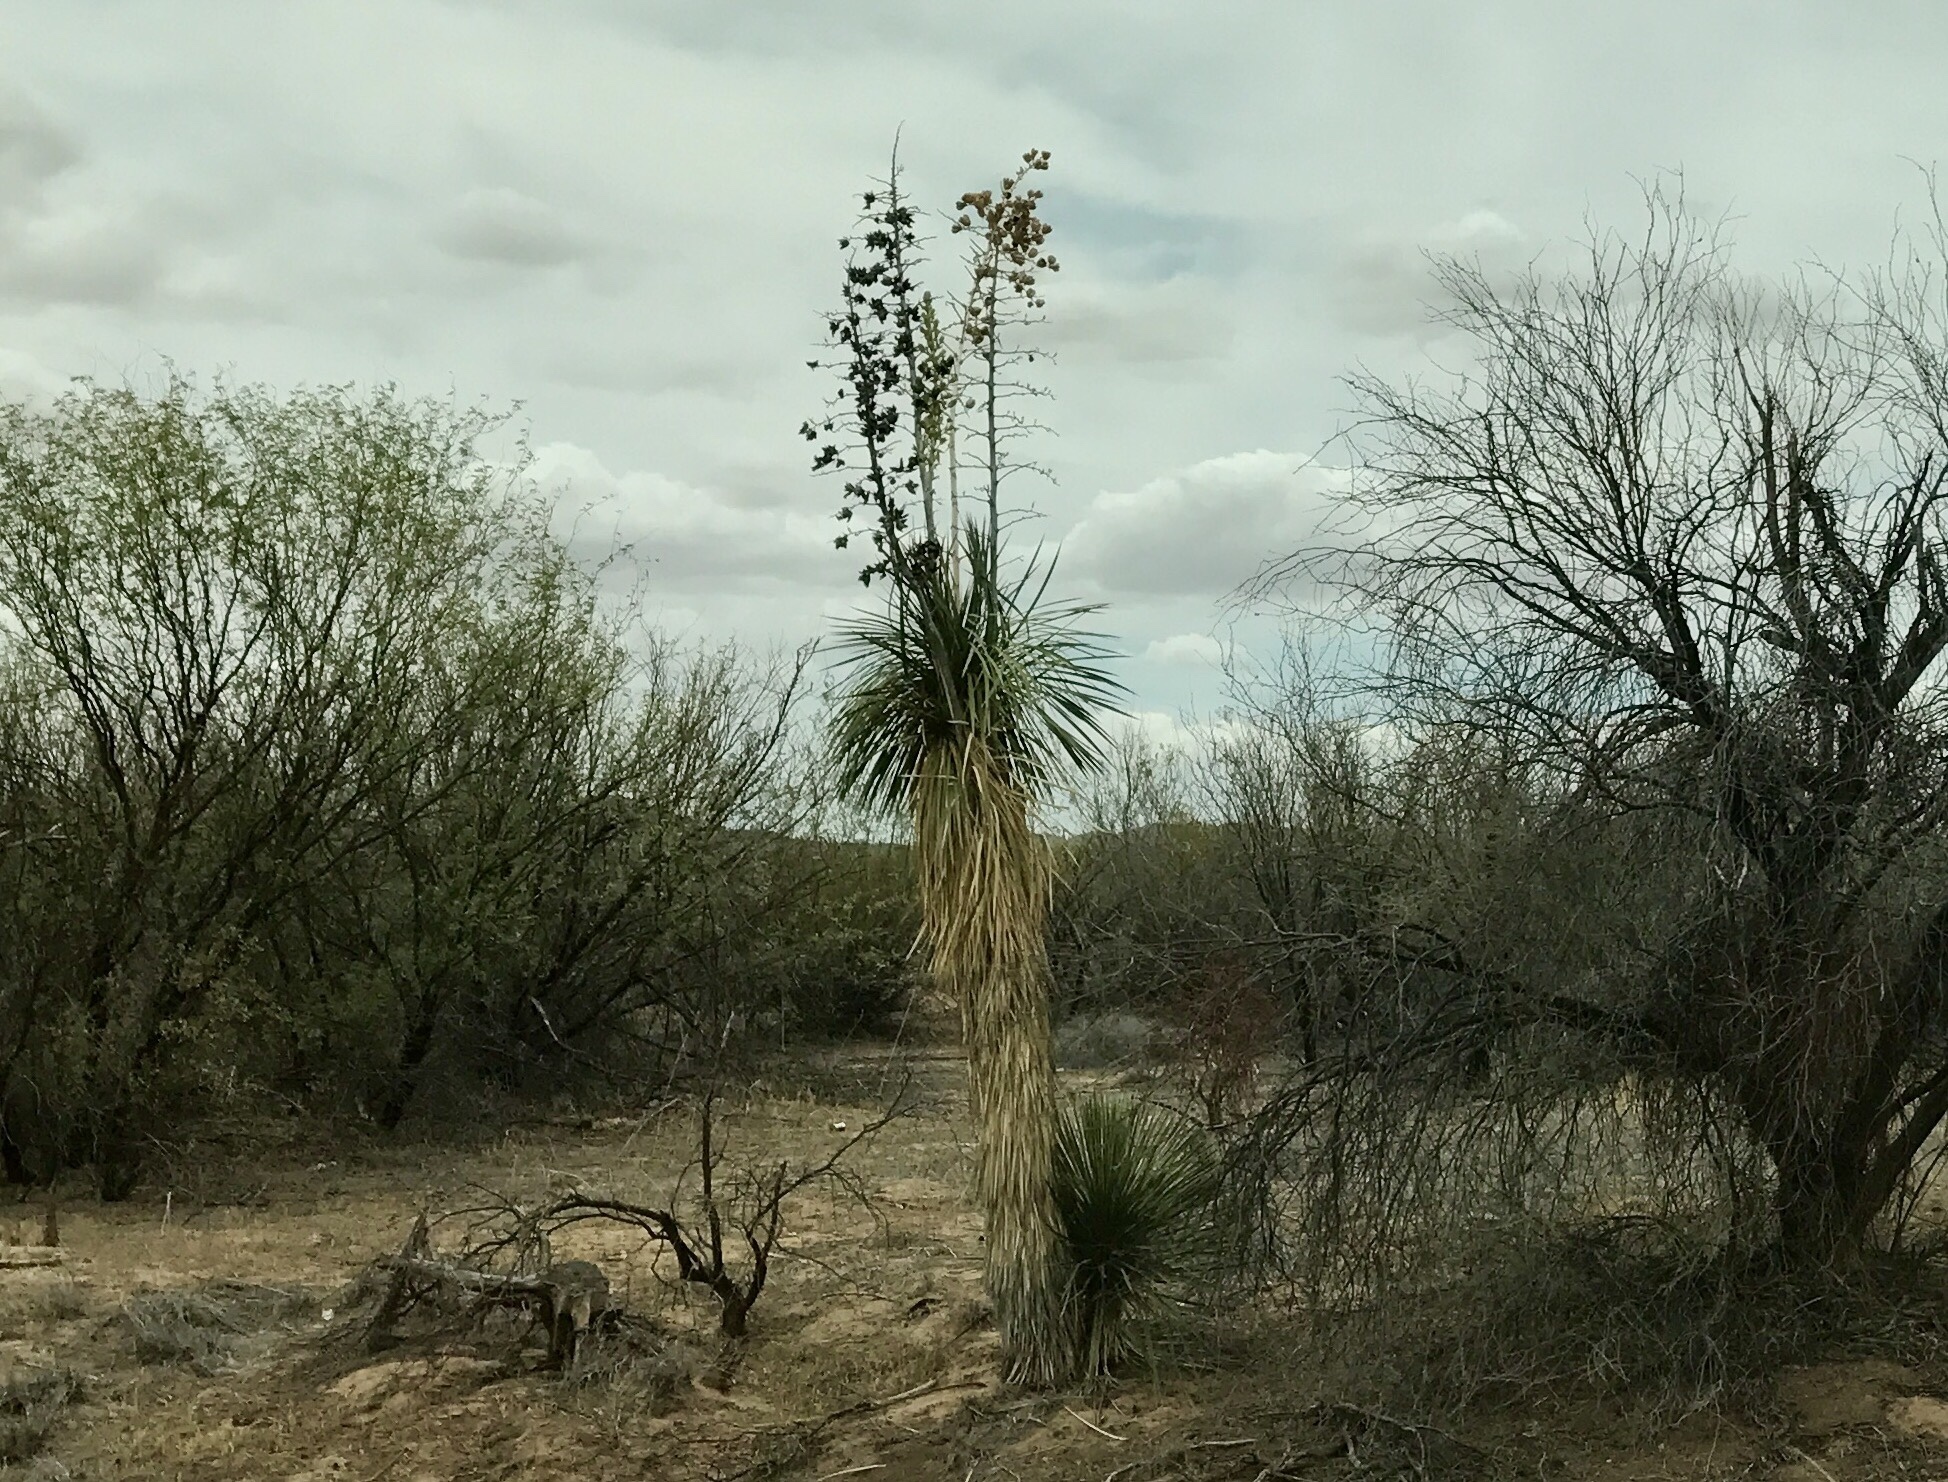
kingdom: Plantae
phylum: Tracheophyta
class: Liliopsida
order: Asparagales
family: Asparagaceae
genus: Yucca
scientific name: Yucca elata
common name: Palmella
